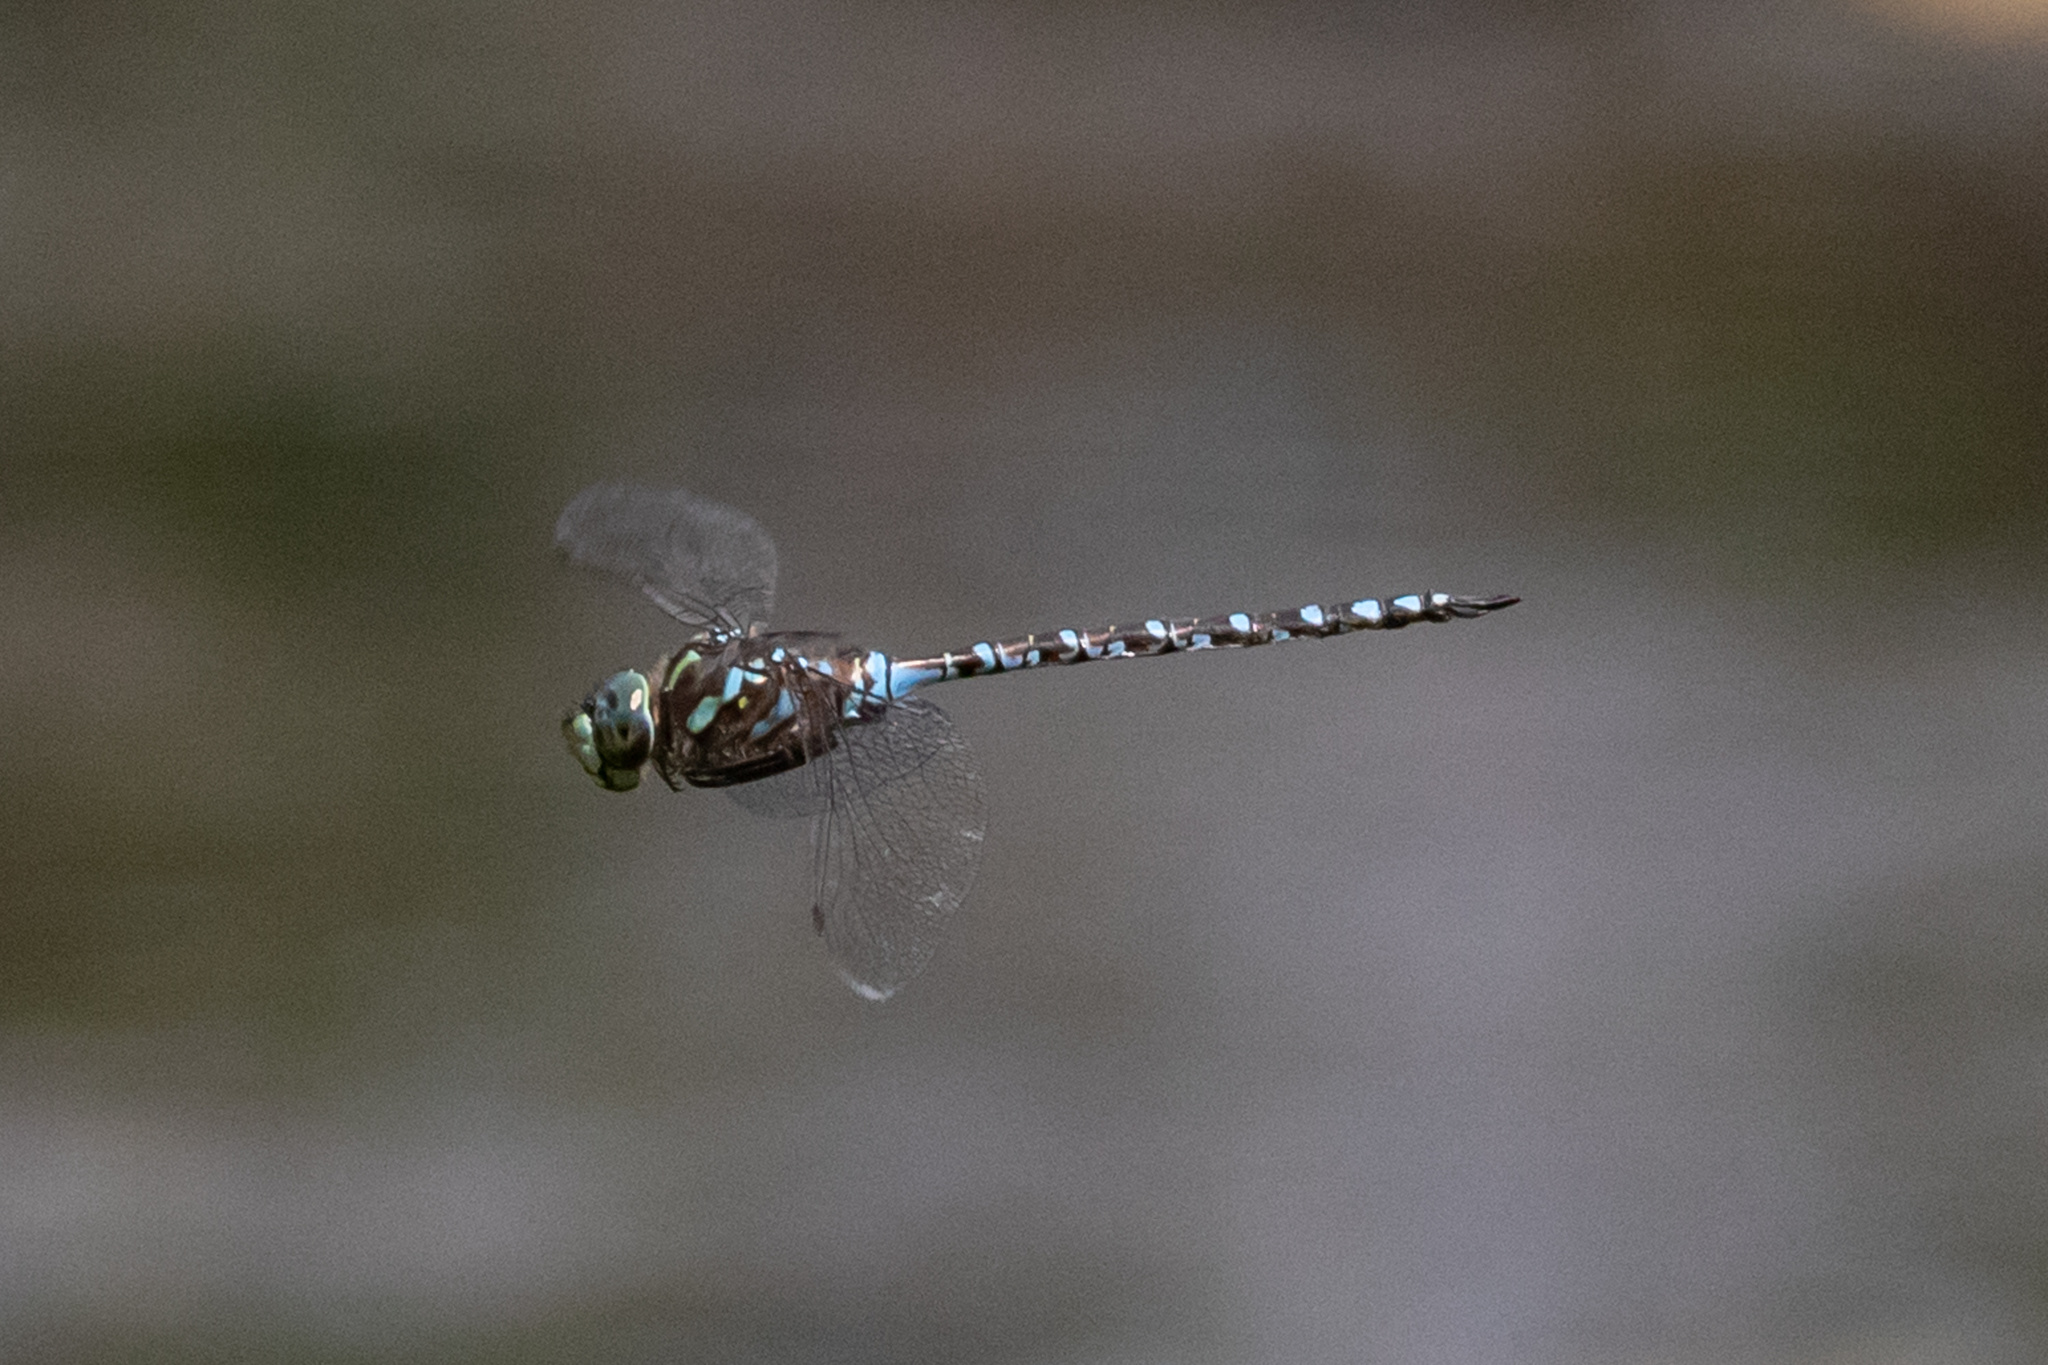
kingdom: Animalia
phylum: Arthropoda
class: Insecta
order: Odonata
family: Aeshnidae
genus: Aeshna
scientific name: Aeshna canadensis
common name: Canada darner
